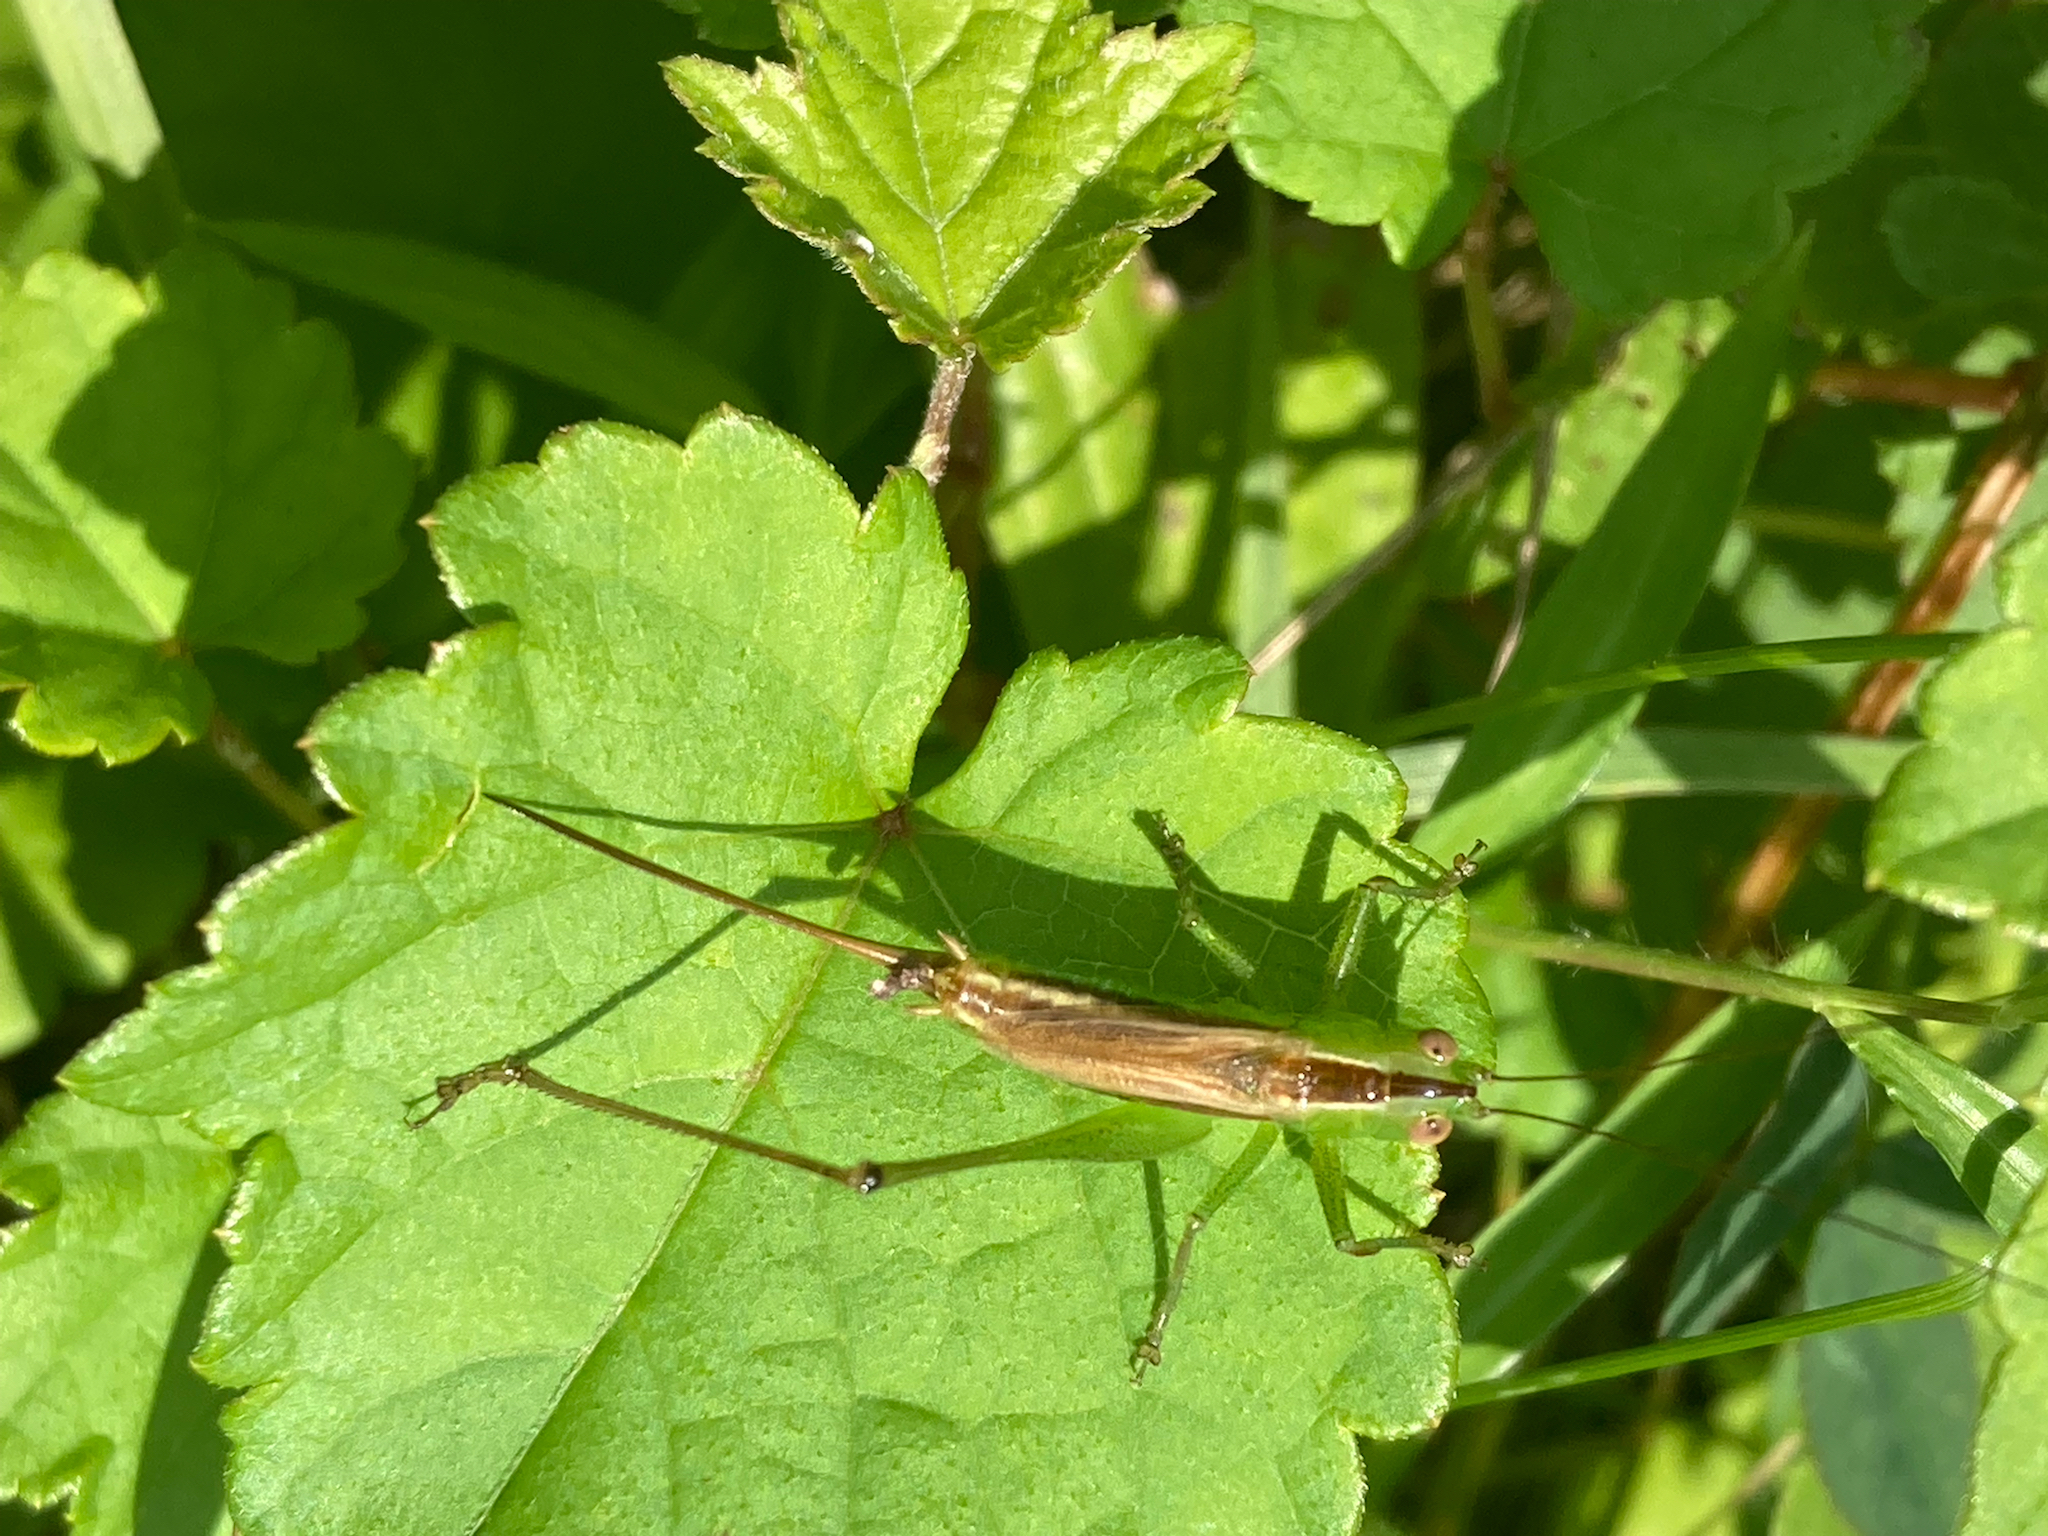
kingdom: Animalia
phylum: Arthropoda
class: Insecta
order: Orthoptera
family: Tettigoniidae
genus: Conocephalus
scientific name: Conocephalus brevipennis
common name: Short-winged meadow katydid
